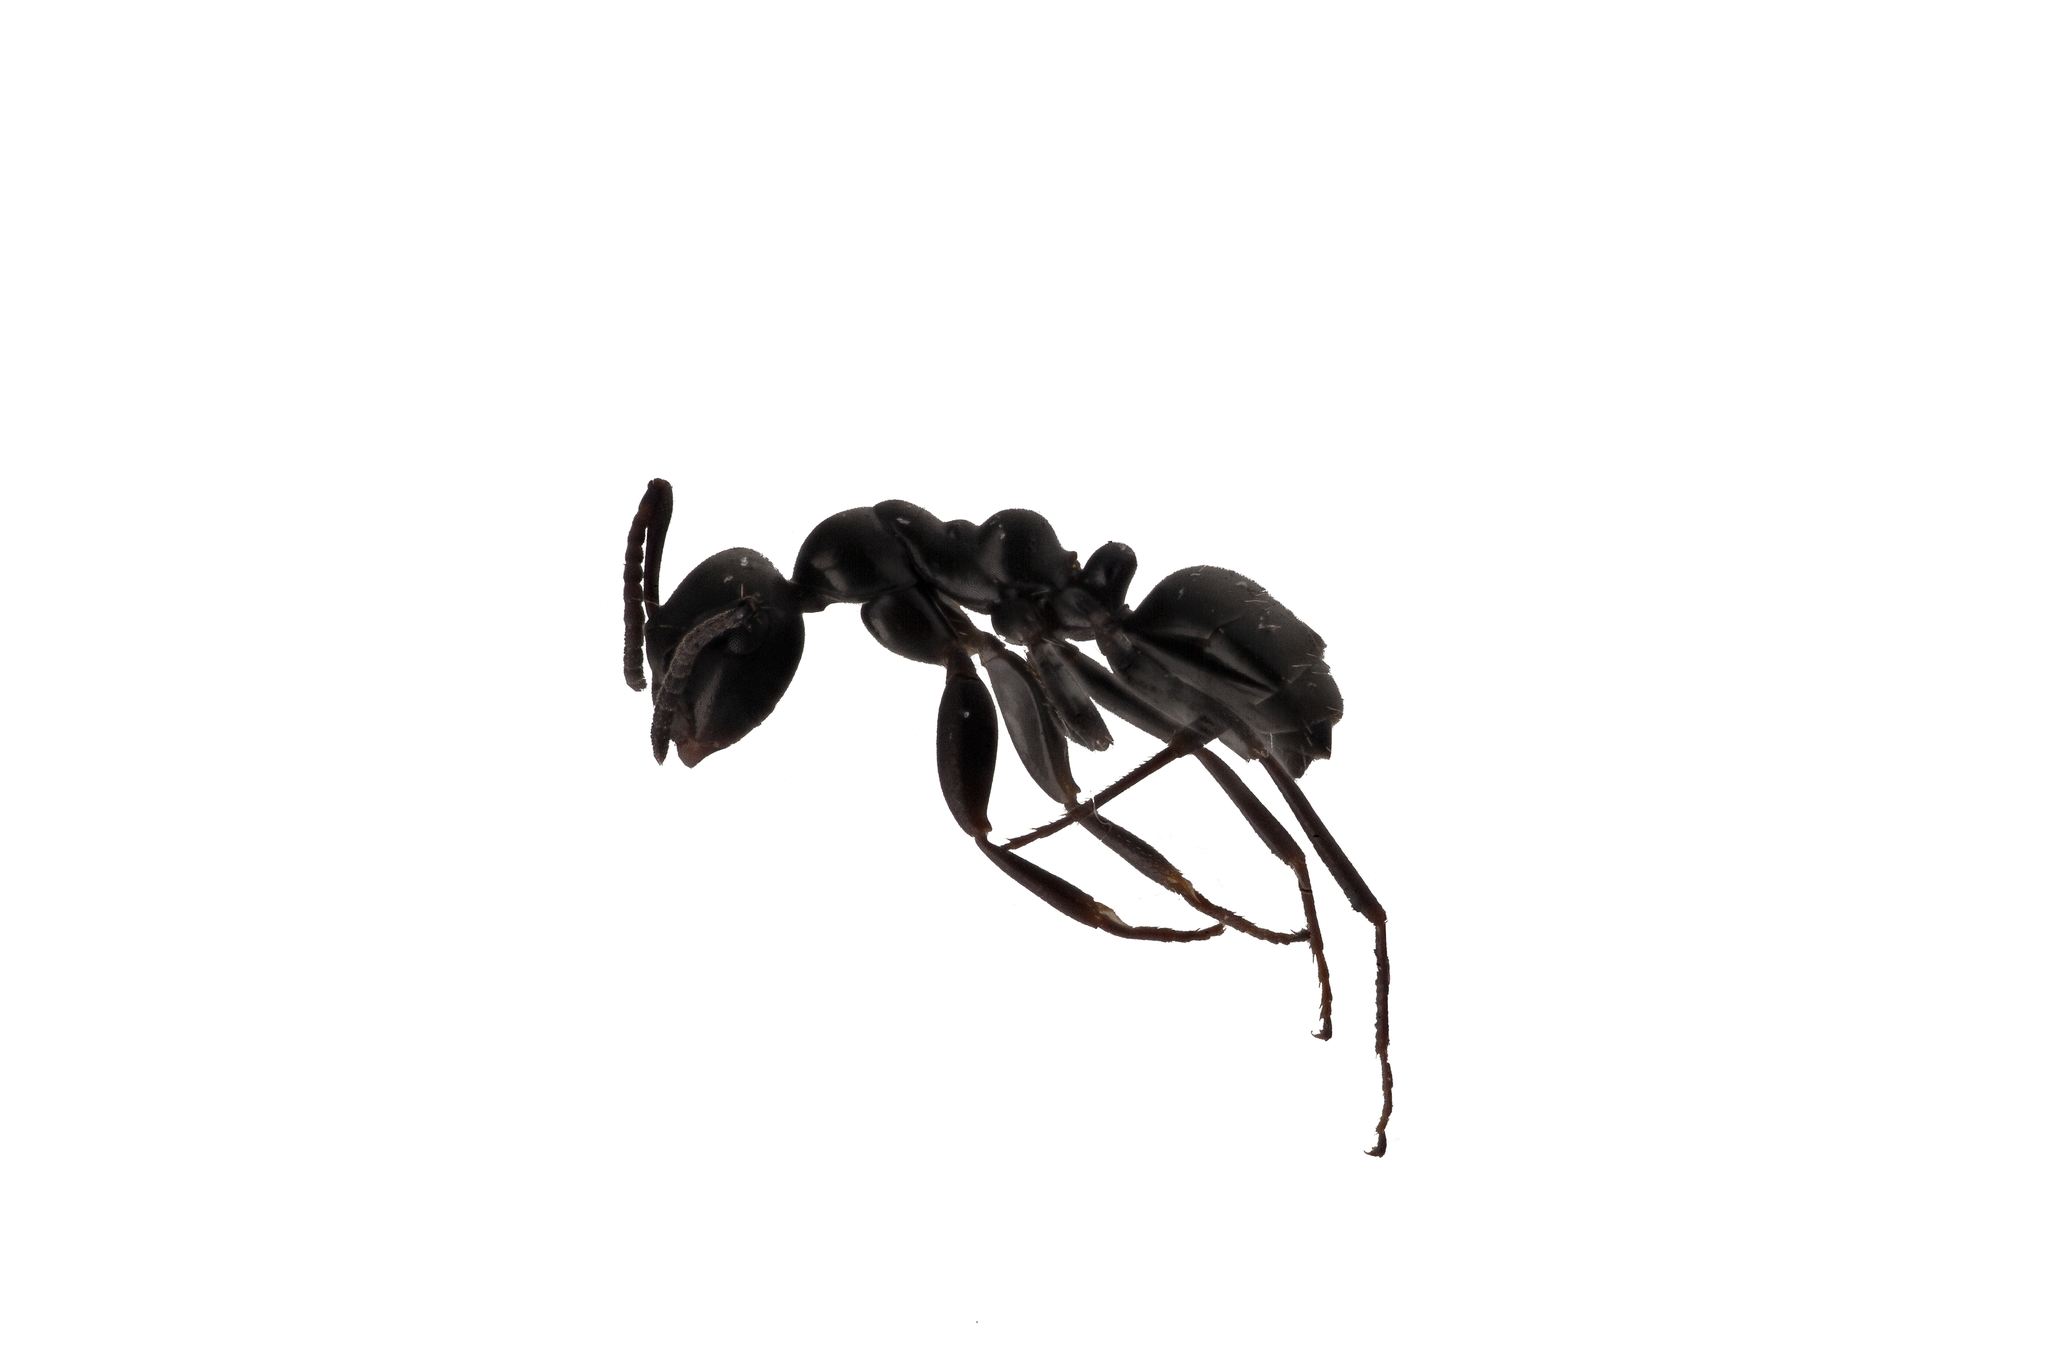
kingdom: Animalia
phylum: Arthropoda
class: Insecta
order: Hymenoptera
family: Formicidae
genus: Colobopsis
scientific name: Colobopsis gasseri
